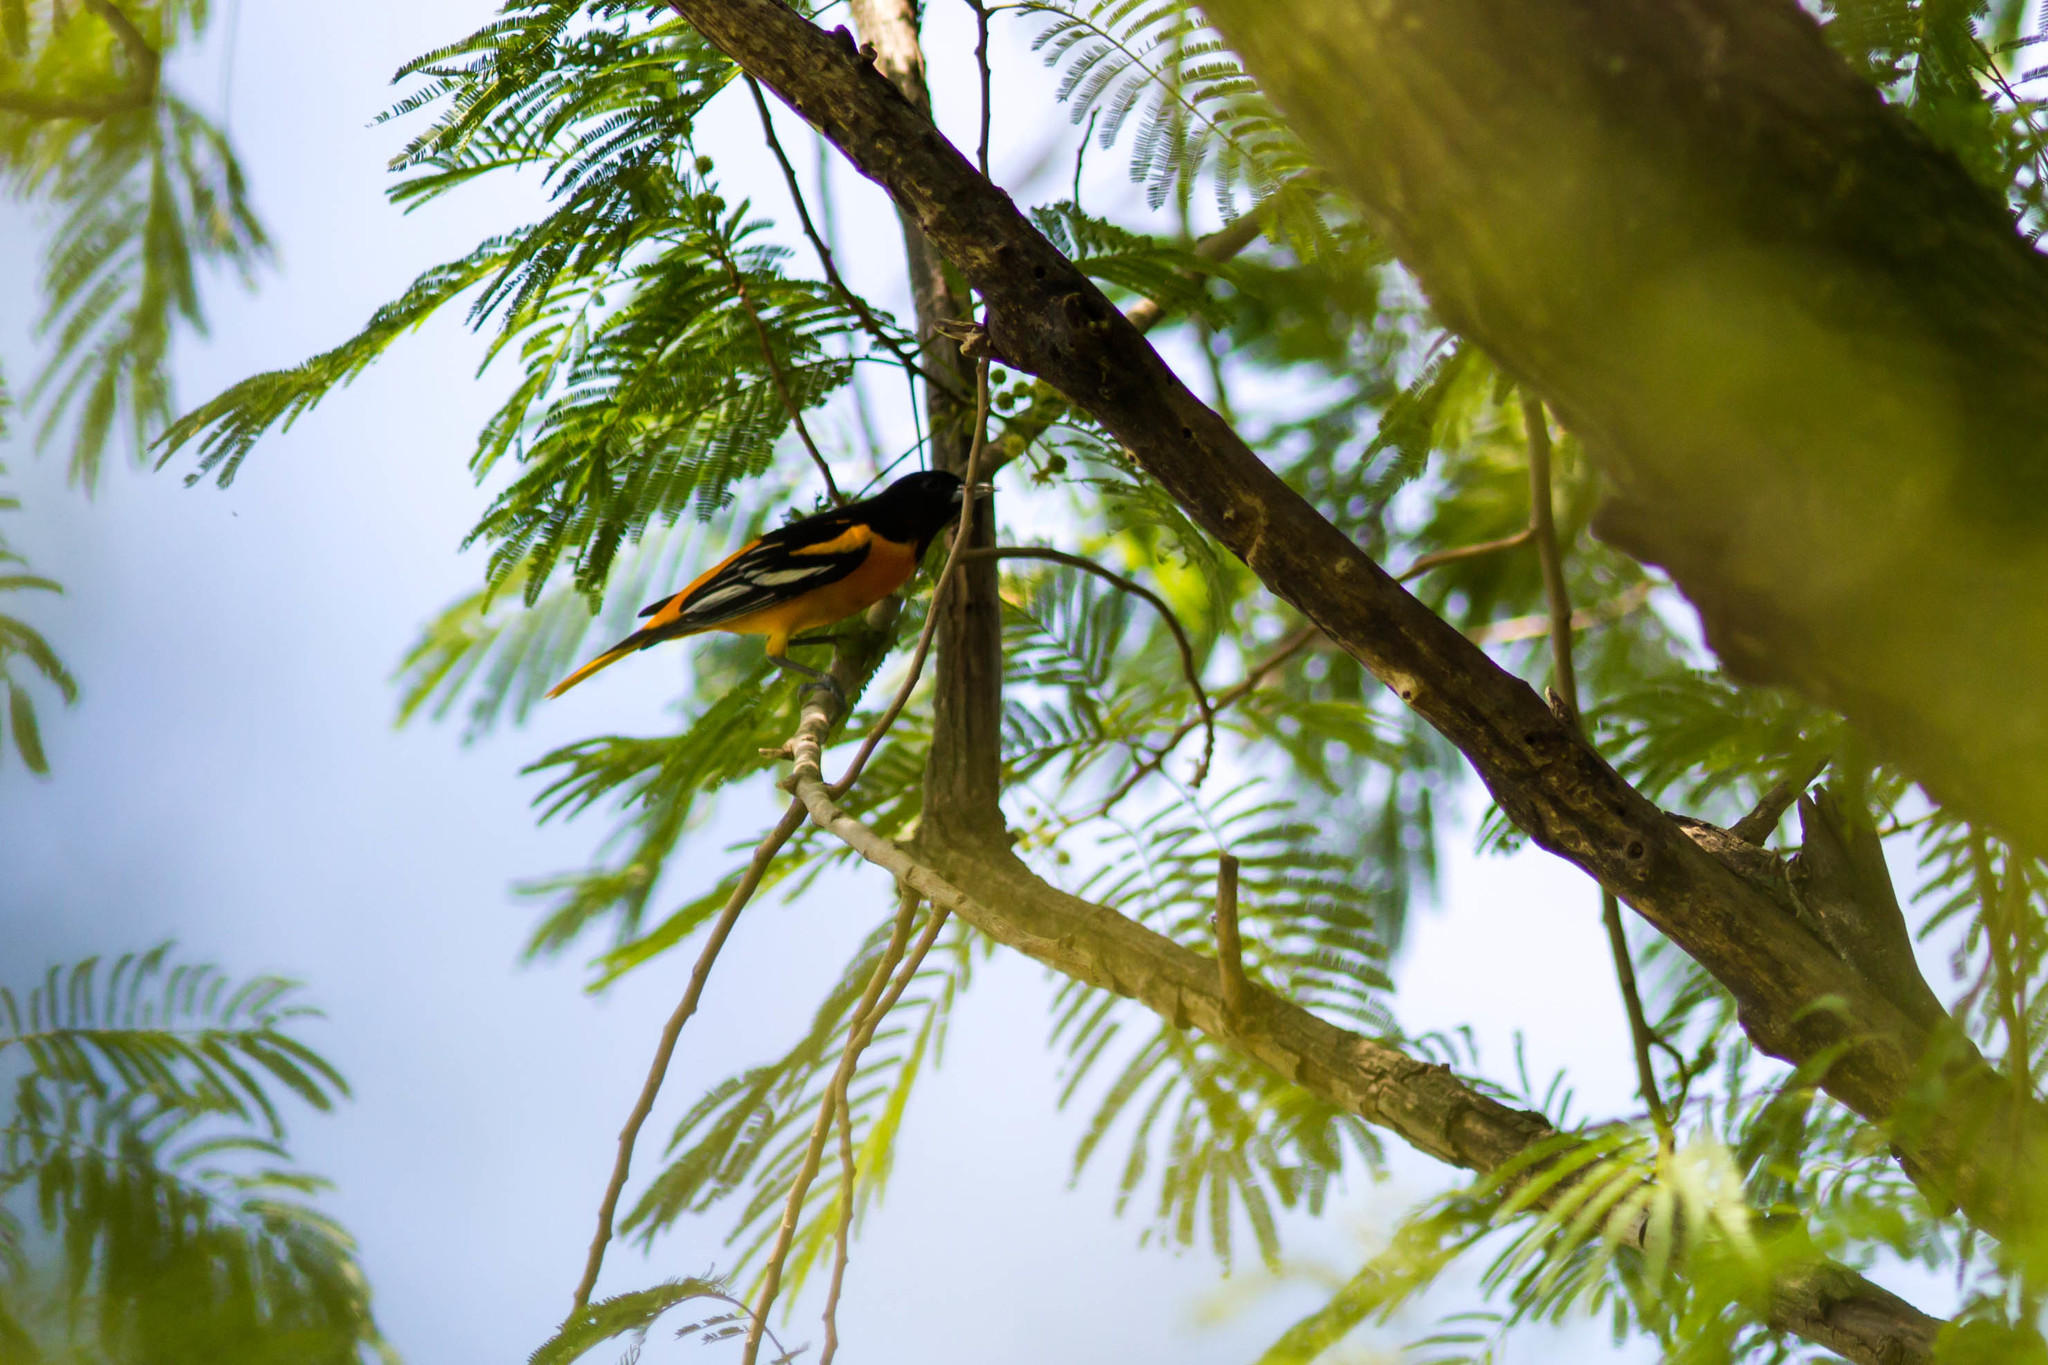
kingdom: Animalia
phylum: Chordata
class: Aves
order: Passeriformes
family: Icteridae
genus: Icterus
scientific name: Icterus galbula
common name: Baltimore oriole
